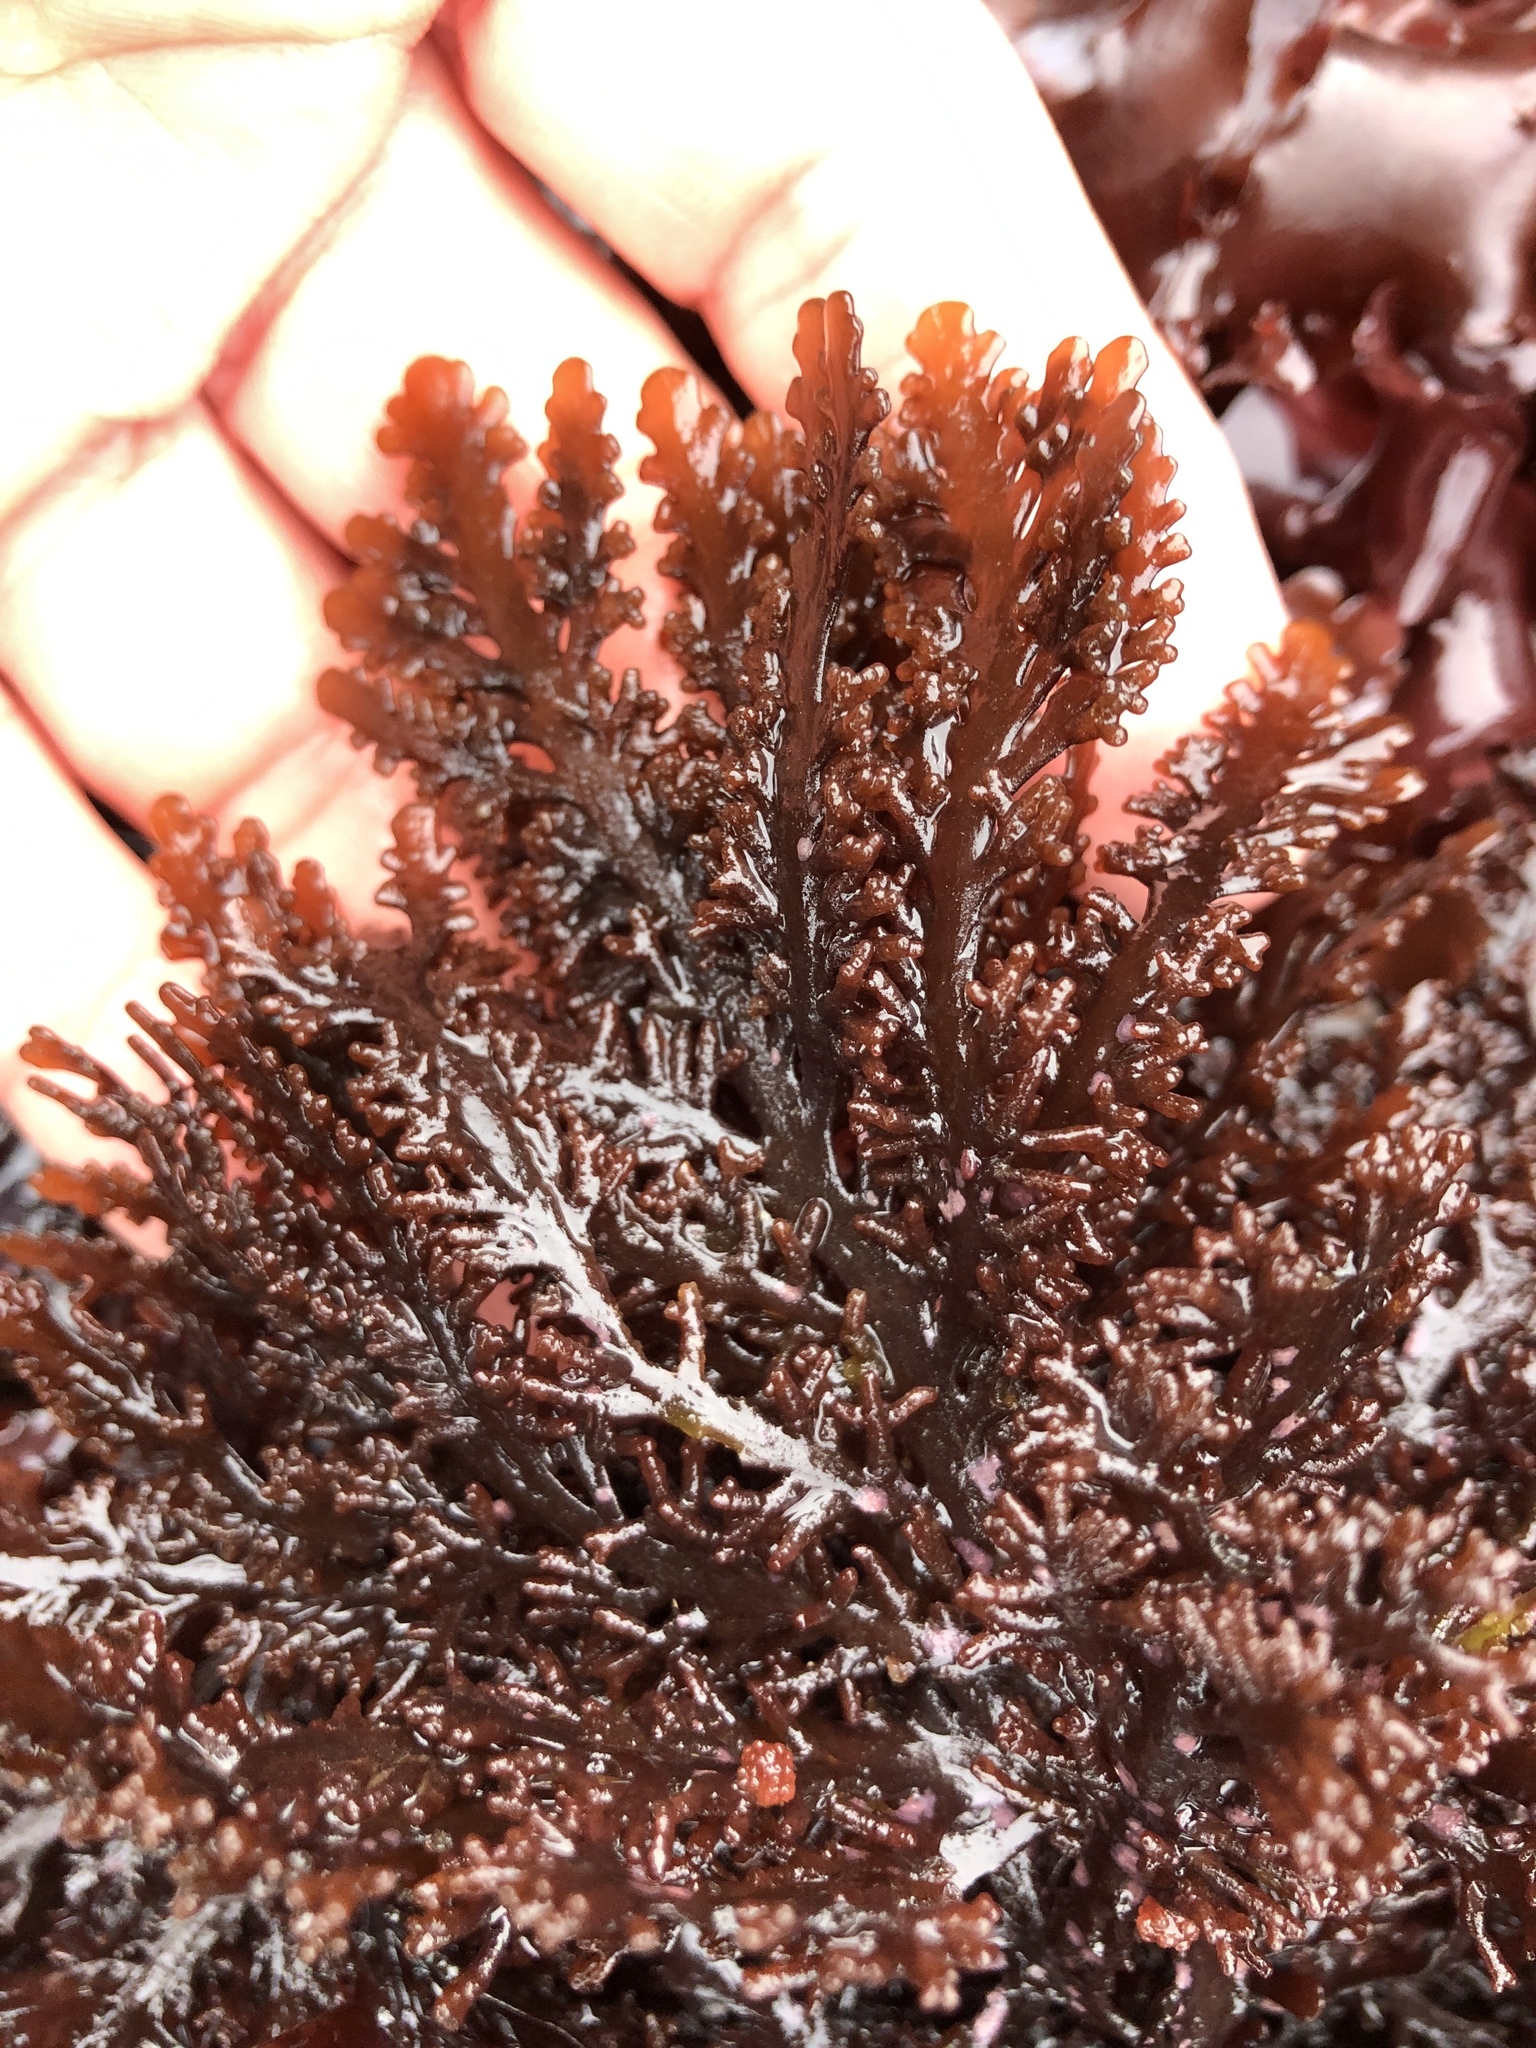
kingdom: Plantae
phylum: Rhodophyta
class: Florideophyceae
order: Ceramiales
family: Rhodomelaceae
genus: Osmundea
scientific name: Osmundea spectabilis
